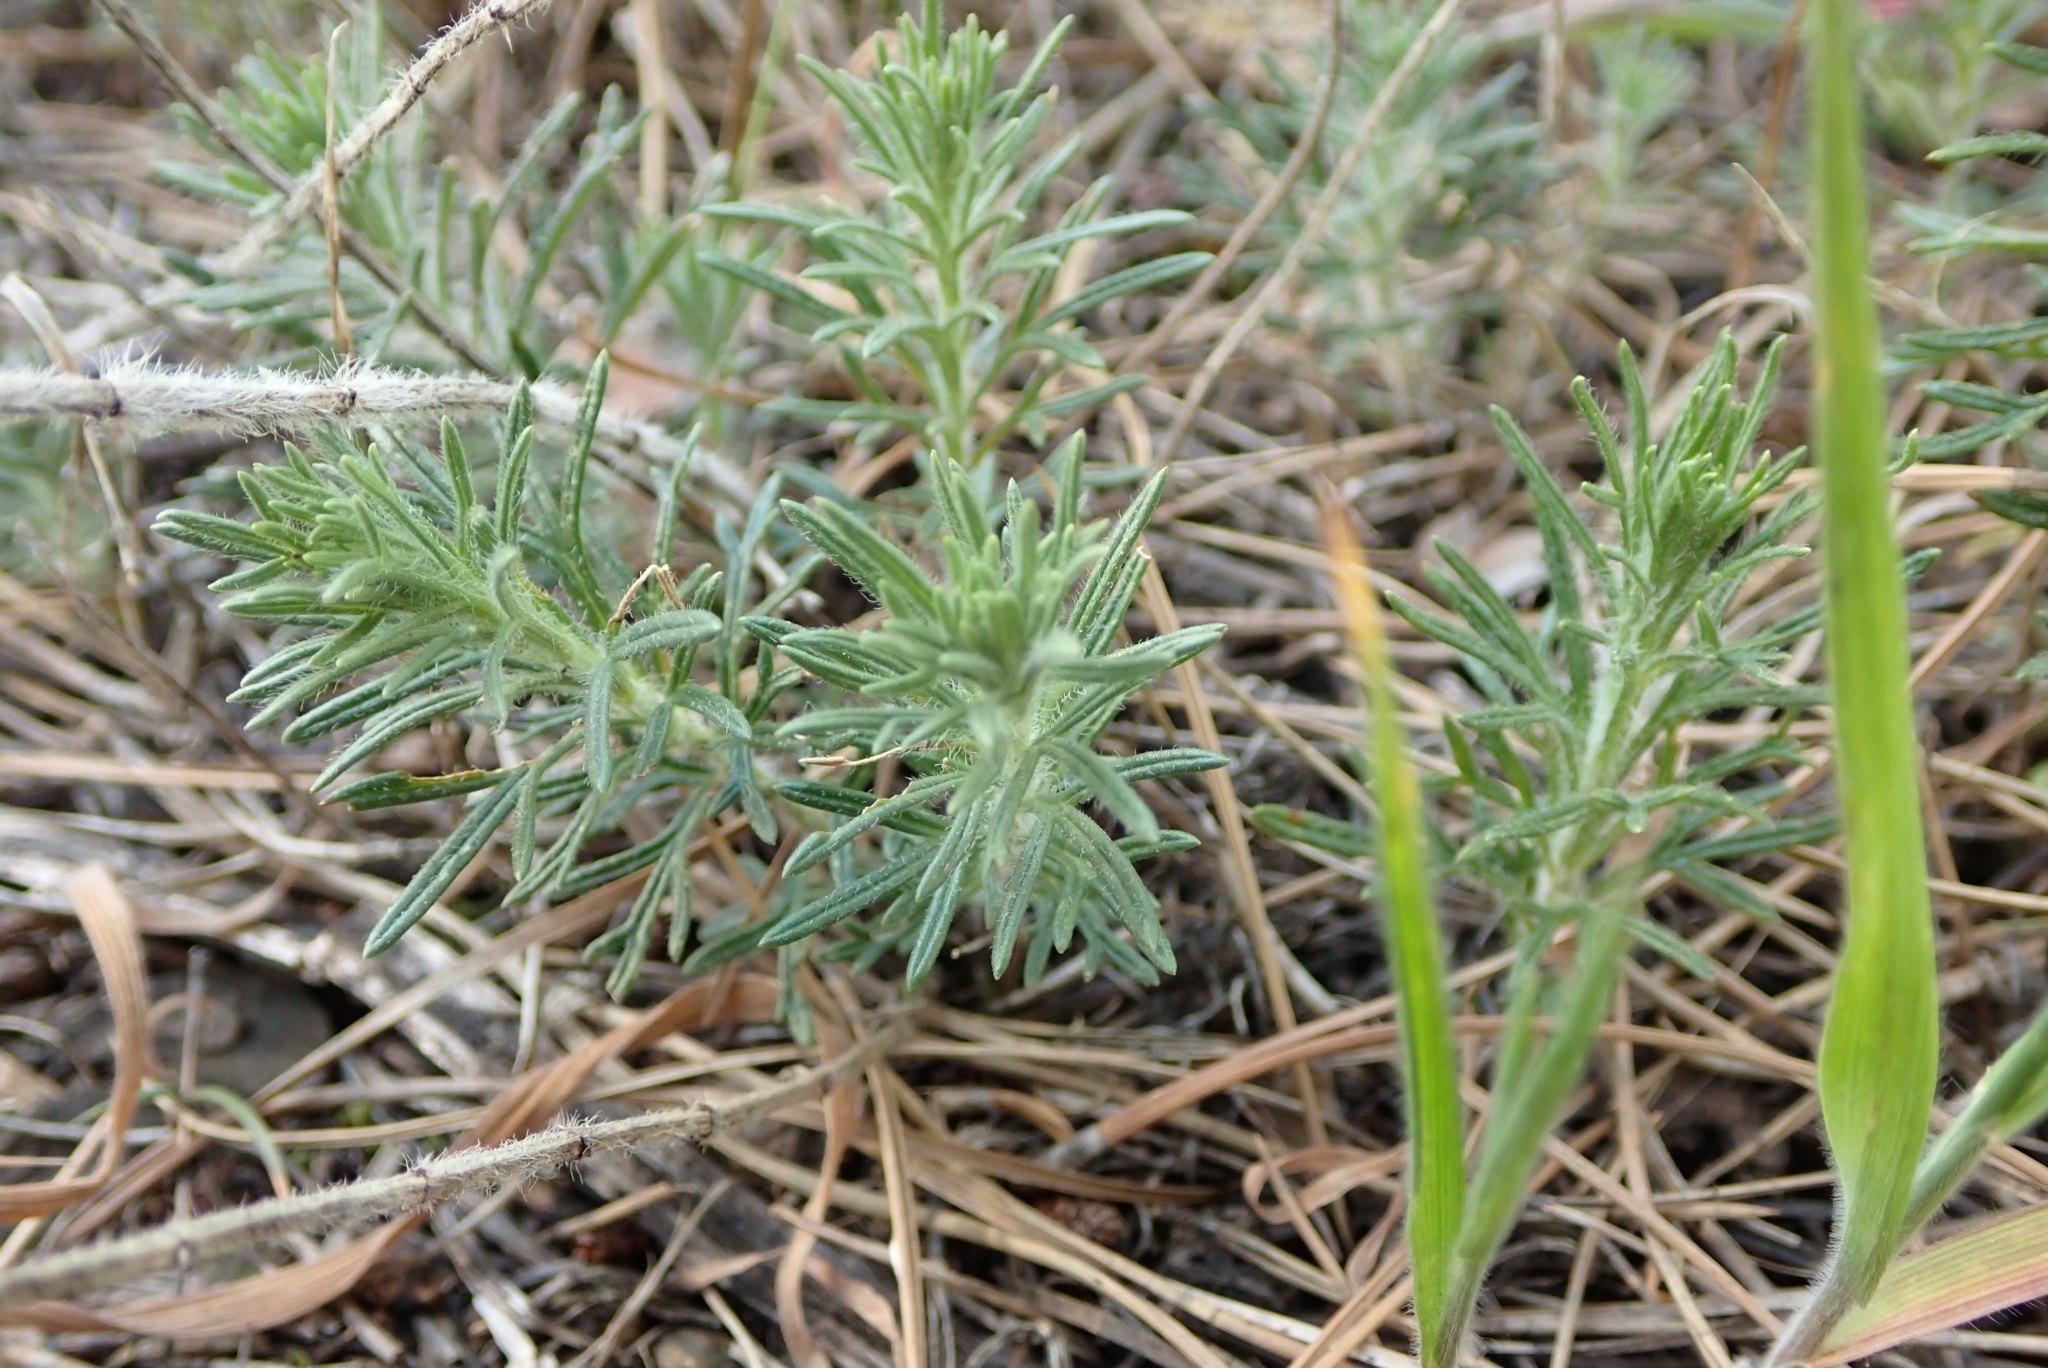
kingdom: Plantae
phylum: Tracheophyta
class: Magnoliopsida
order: Lamiales
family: Lamiaceae
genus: Ajuga
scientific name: Ajuga chamaepitys
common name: Ground-pine
